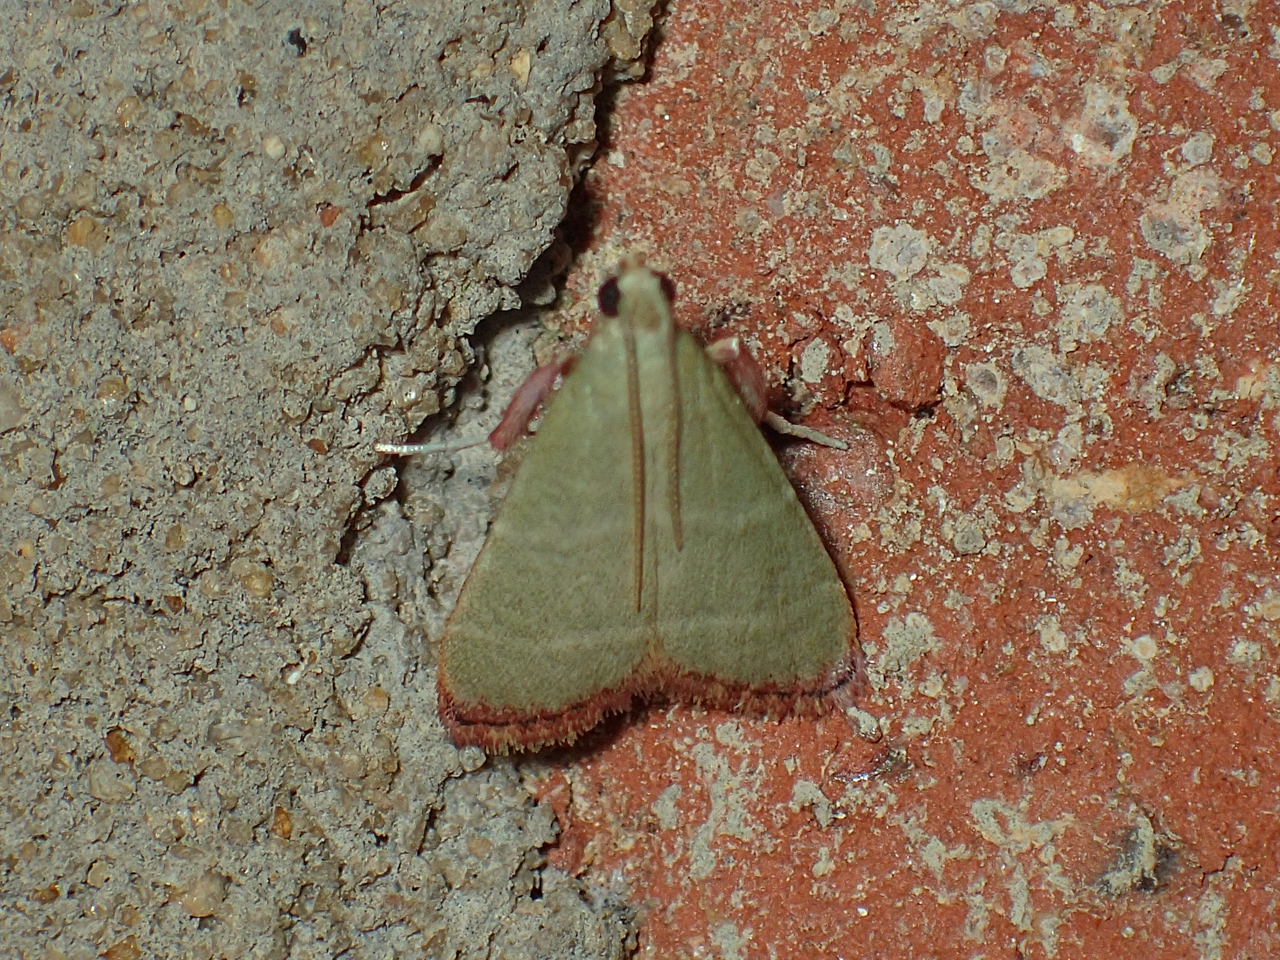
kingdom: Animalia
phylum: Arthropoda
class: Insecta
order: Lepidoptera
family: Pyralidae
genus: Arta
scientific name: Arta olivalis
